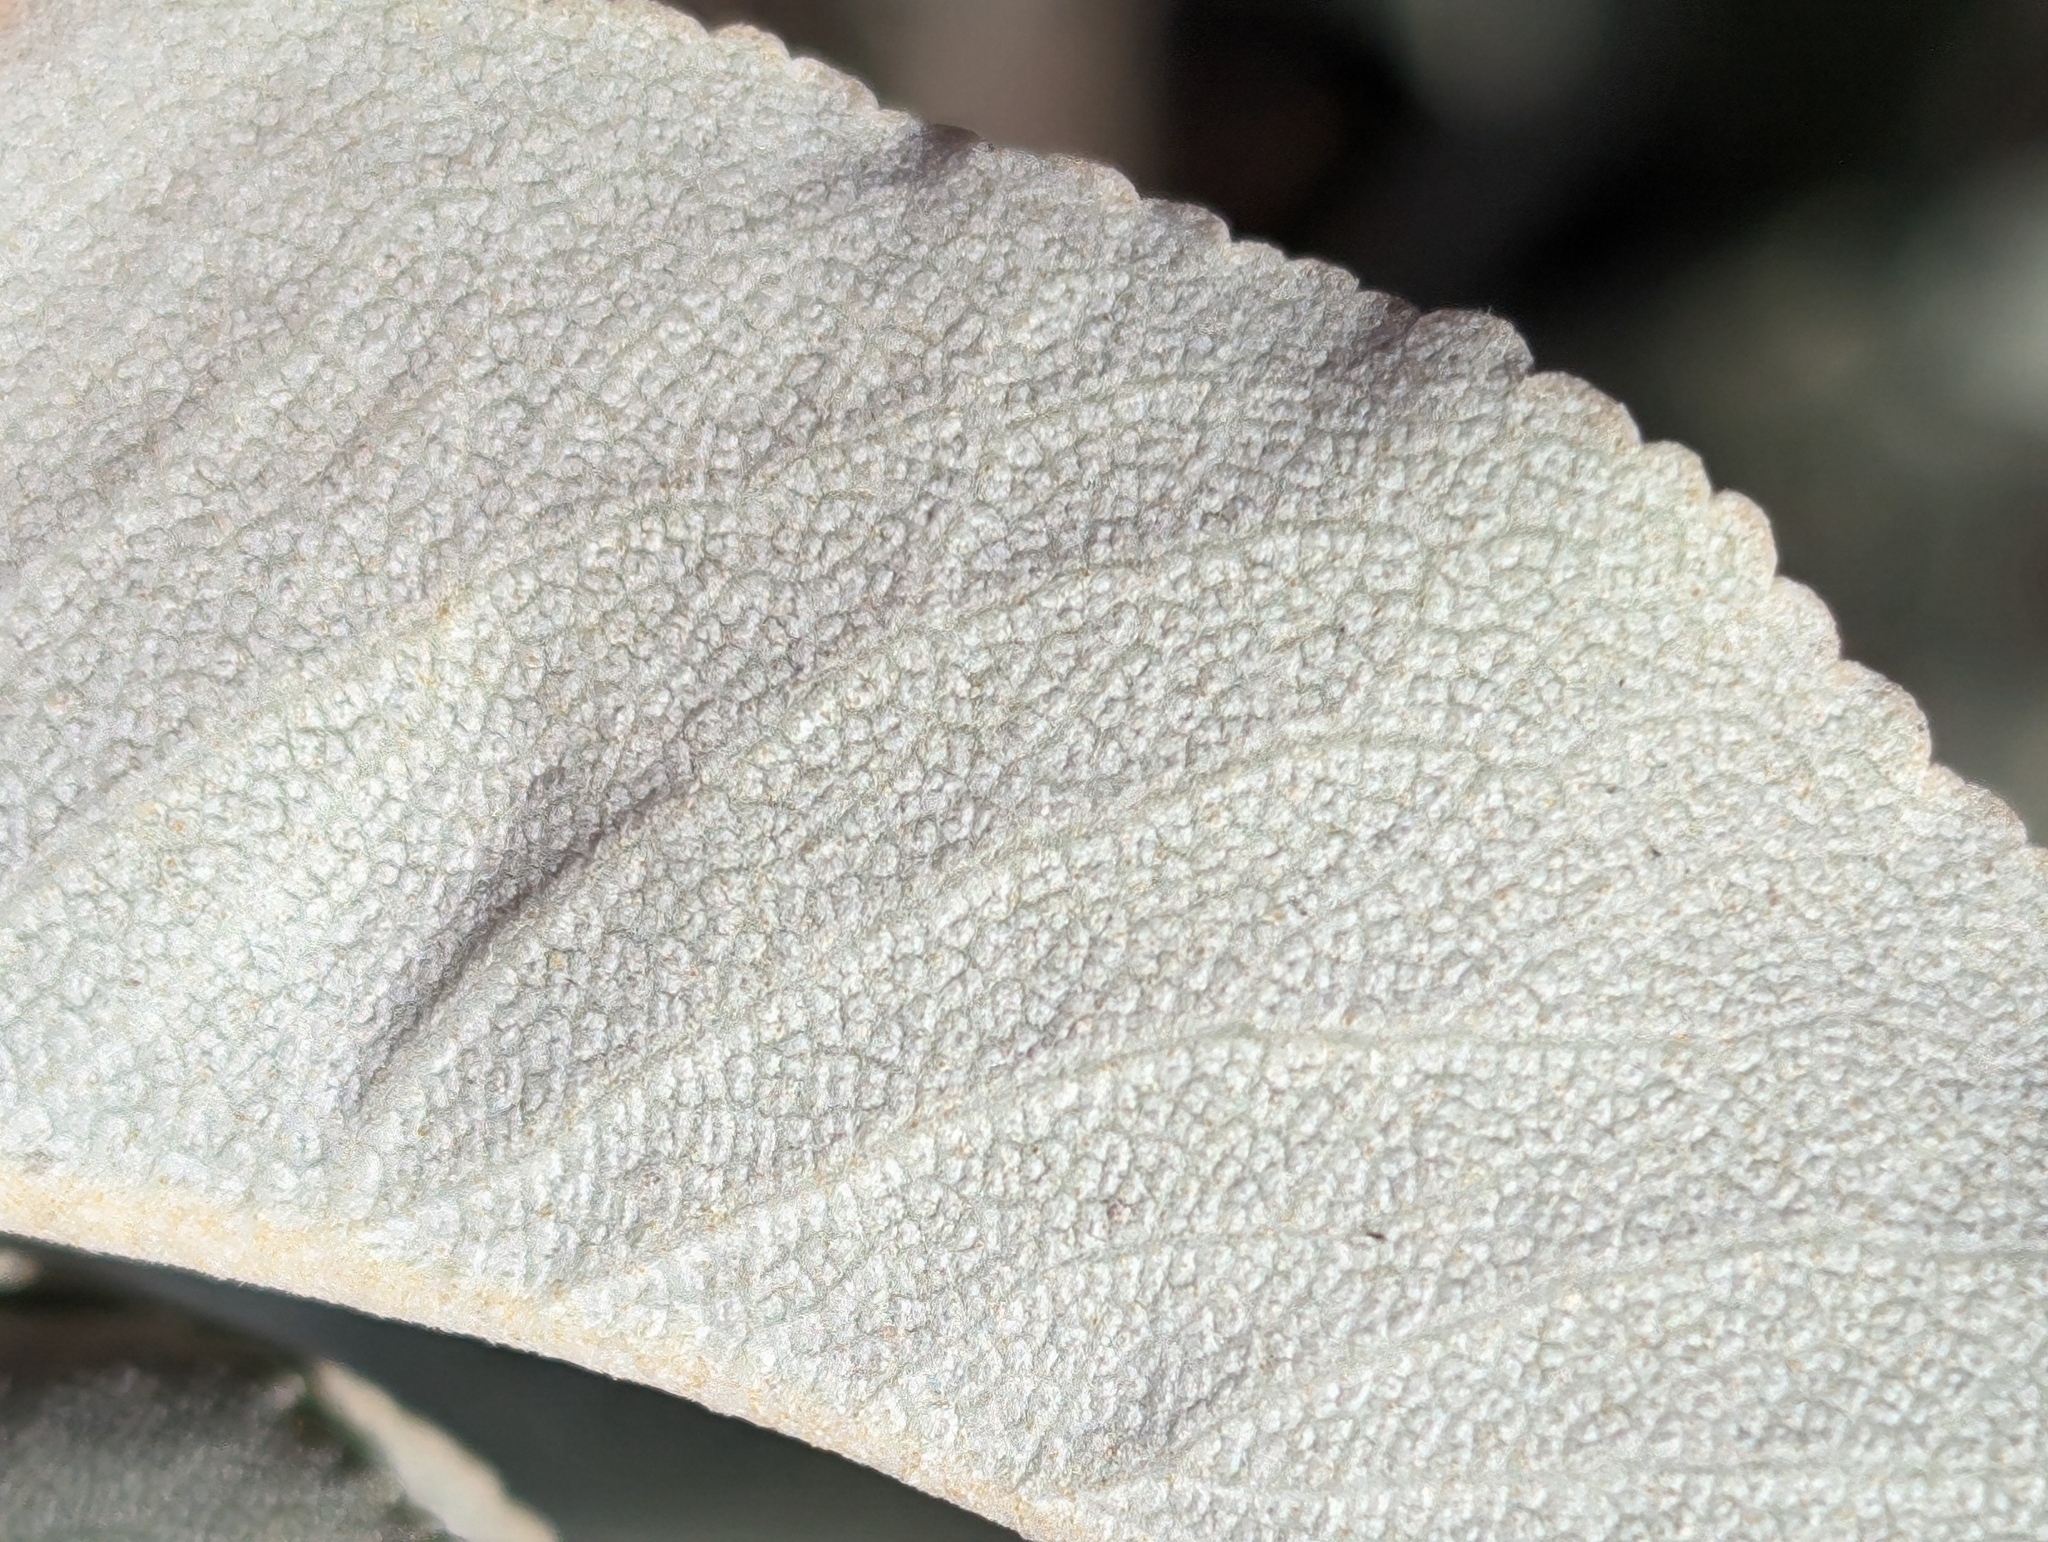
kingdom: Plantae
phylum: Tracheophyta
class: Magnoliopsida
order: Lamiales
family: Lamiaceae
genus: Salvia
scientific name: Salvia apiana
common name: White sage
